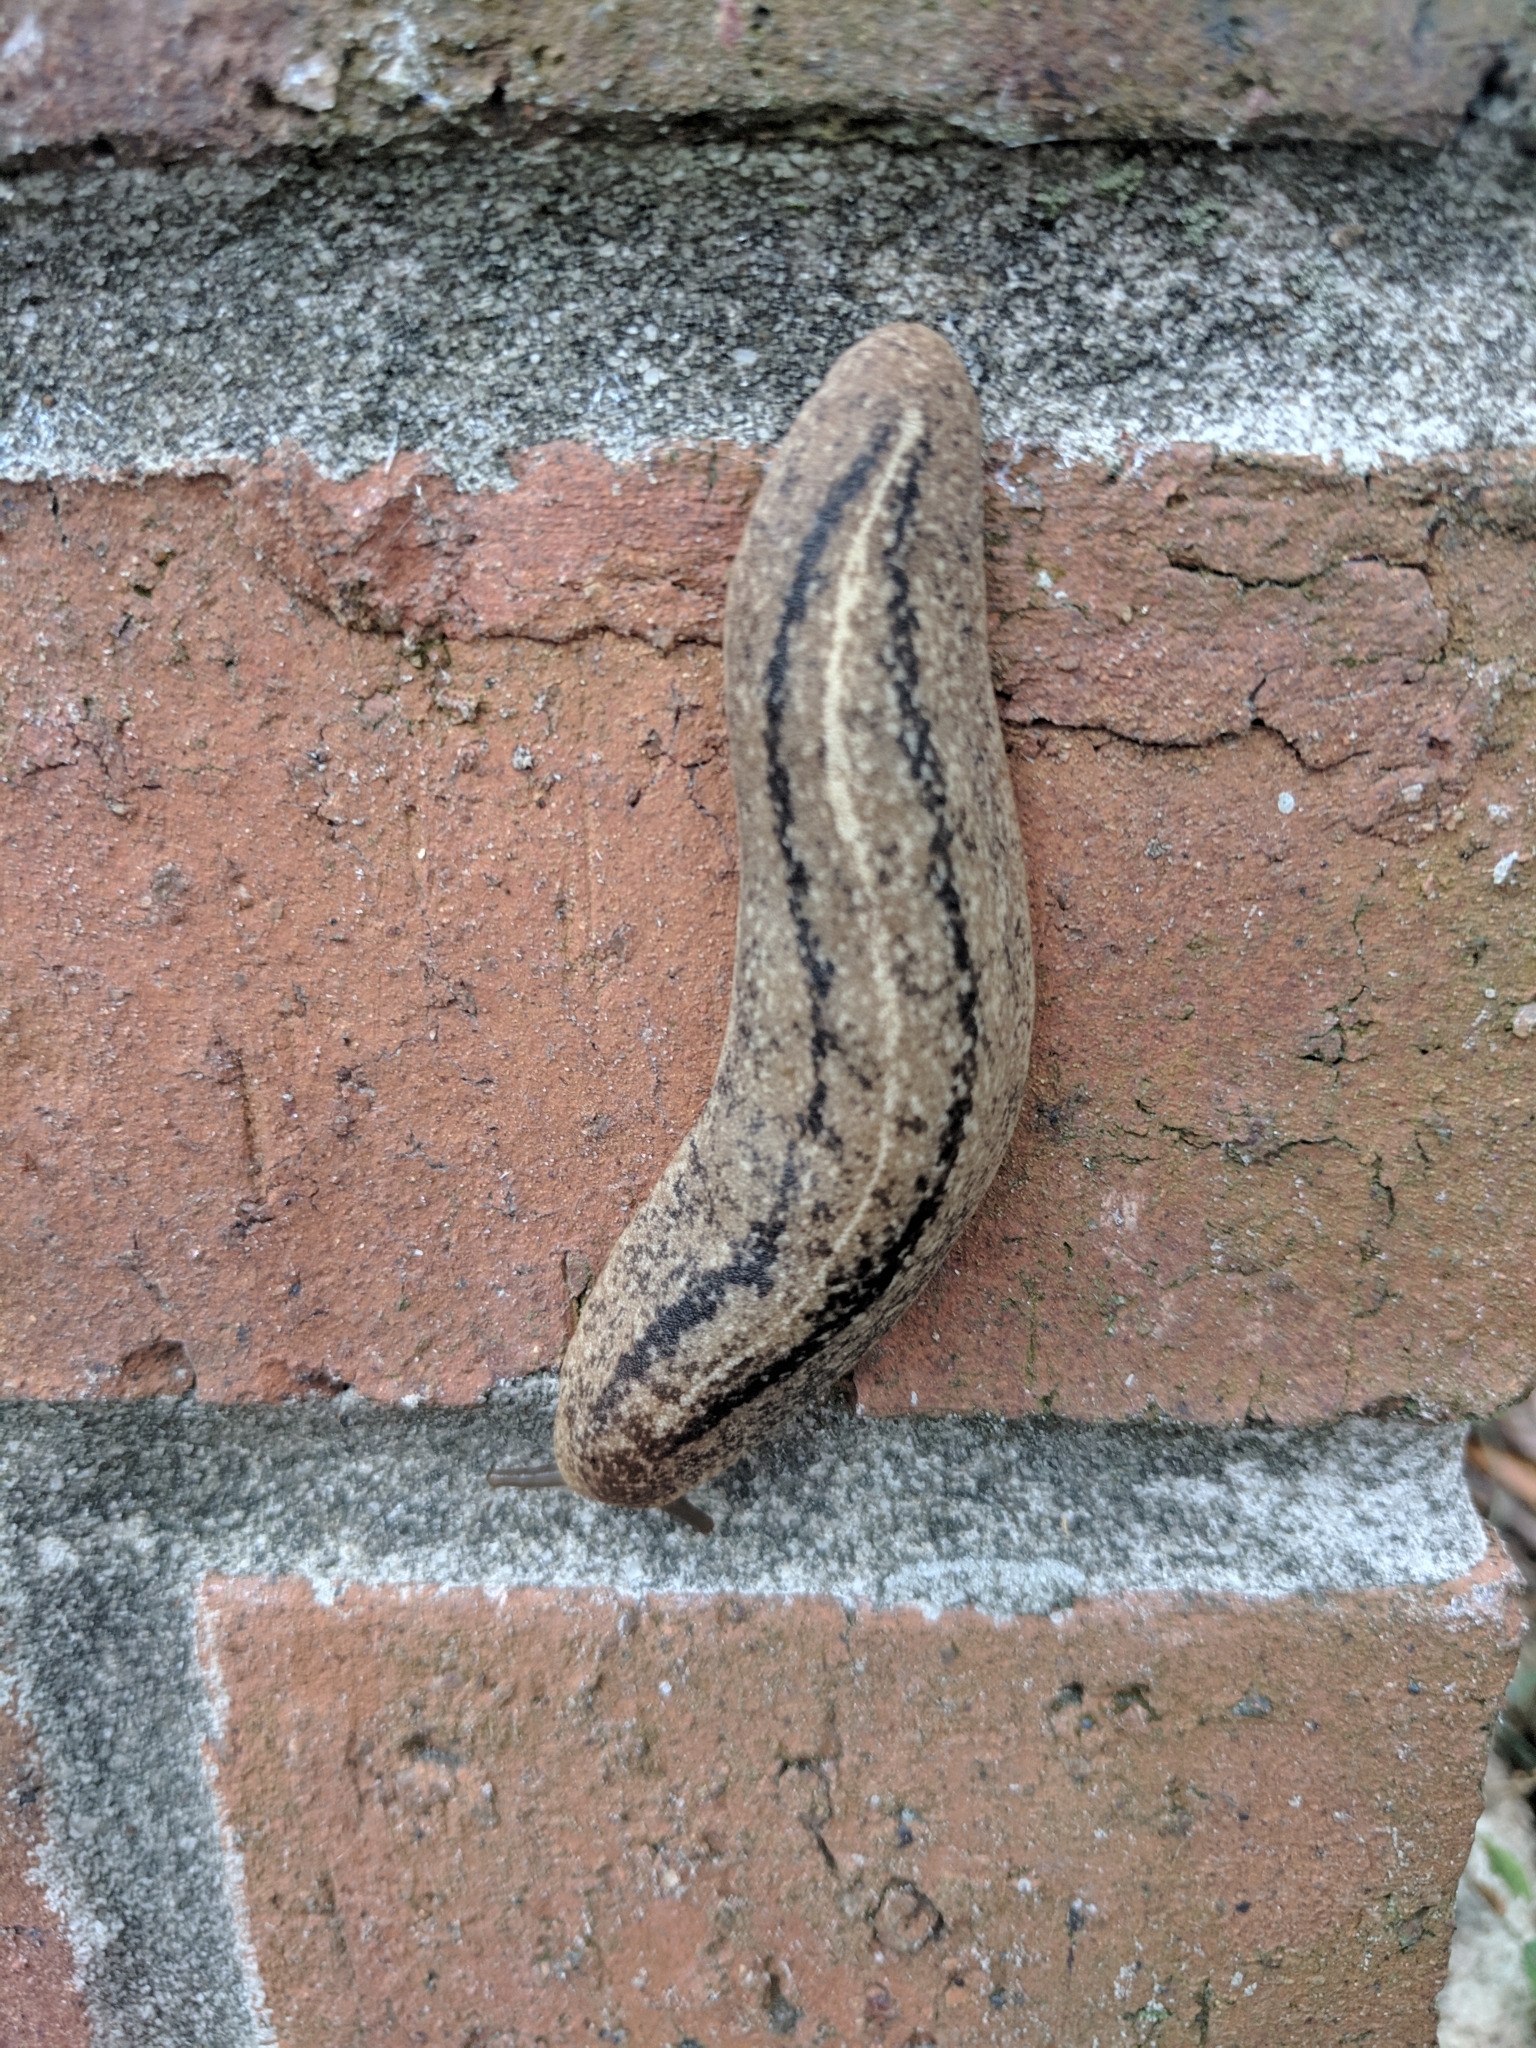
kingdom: Animalia
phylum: Mollusca
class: Gastropoda
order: Systellommatophora
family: Veronicellidae
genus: Leidyula
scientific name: Leidyula floridana
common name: Florida leatherleaf
